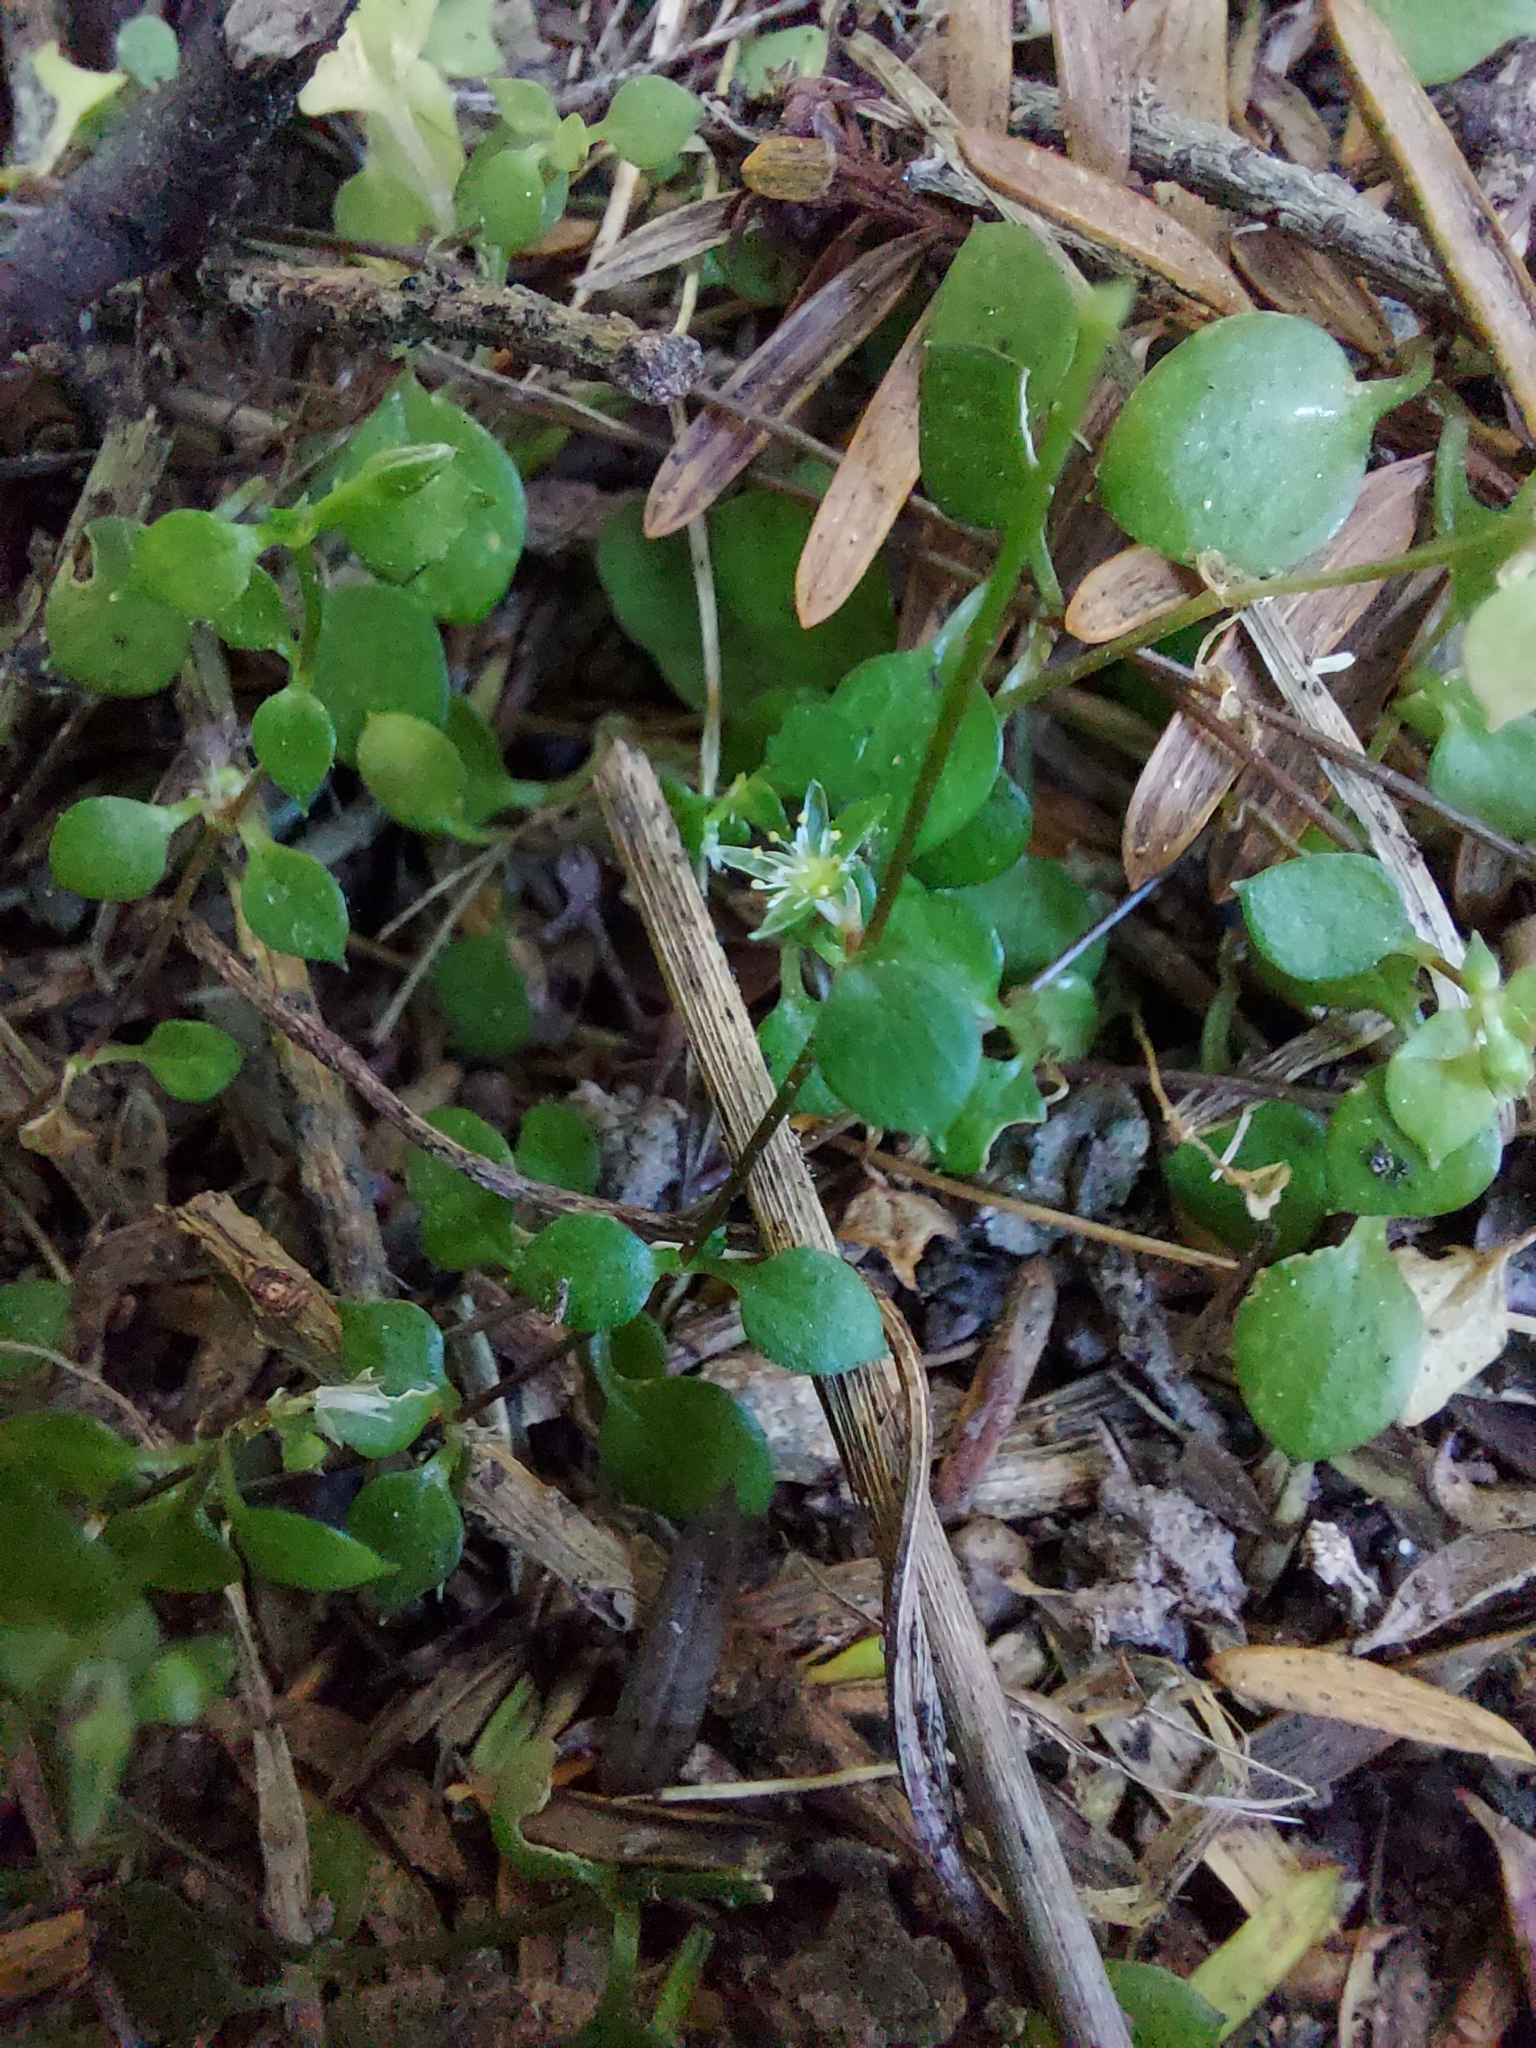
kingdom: Plantae
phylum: Tracheophyta
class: Magnoliopsida
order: Caryophyllales
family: Caryophyllaceae
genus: Stellaria
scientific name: Stellaria parviflora
